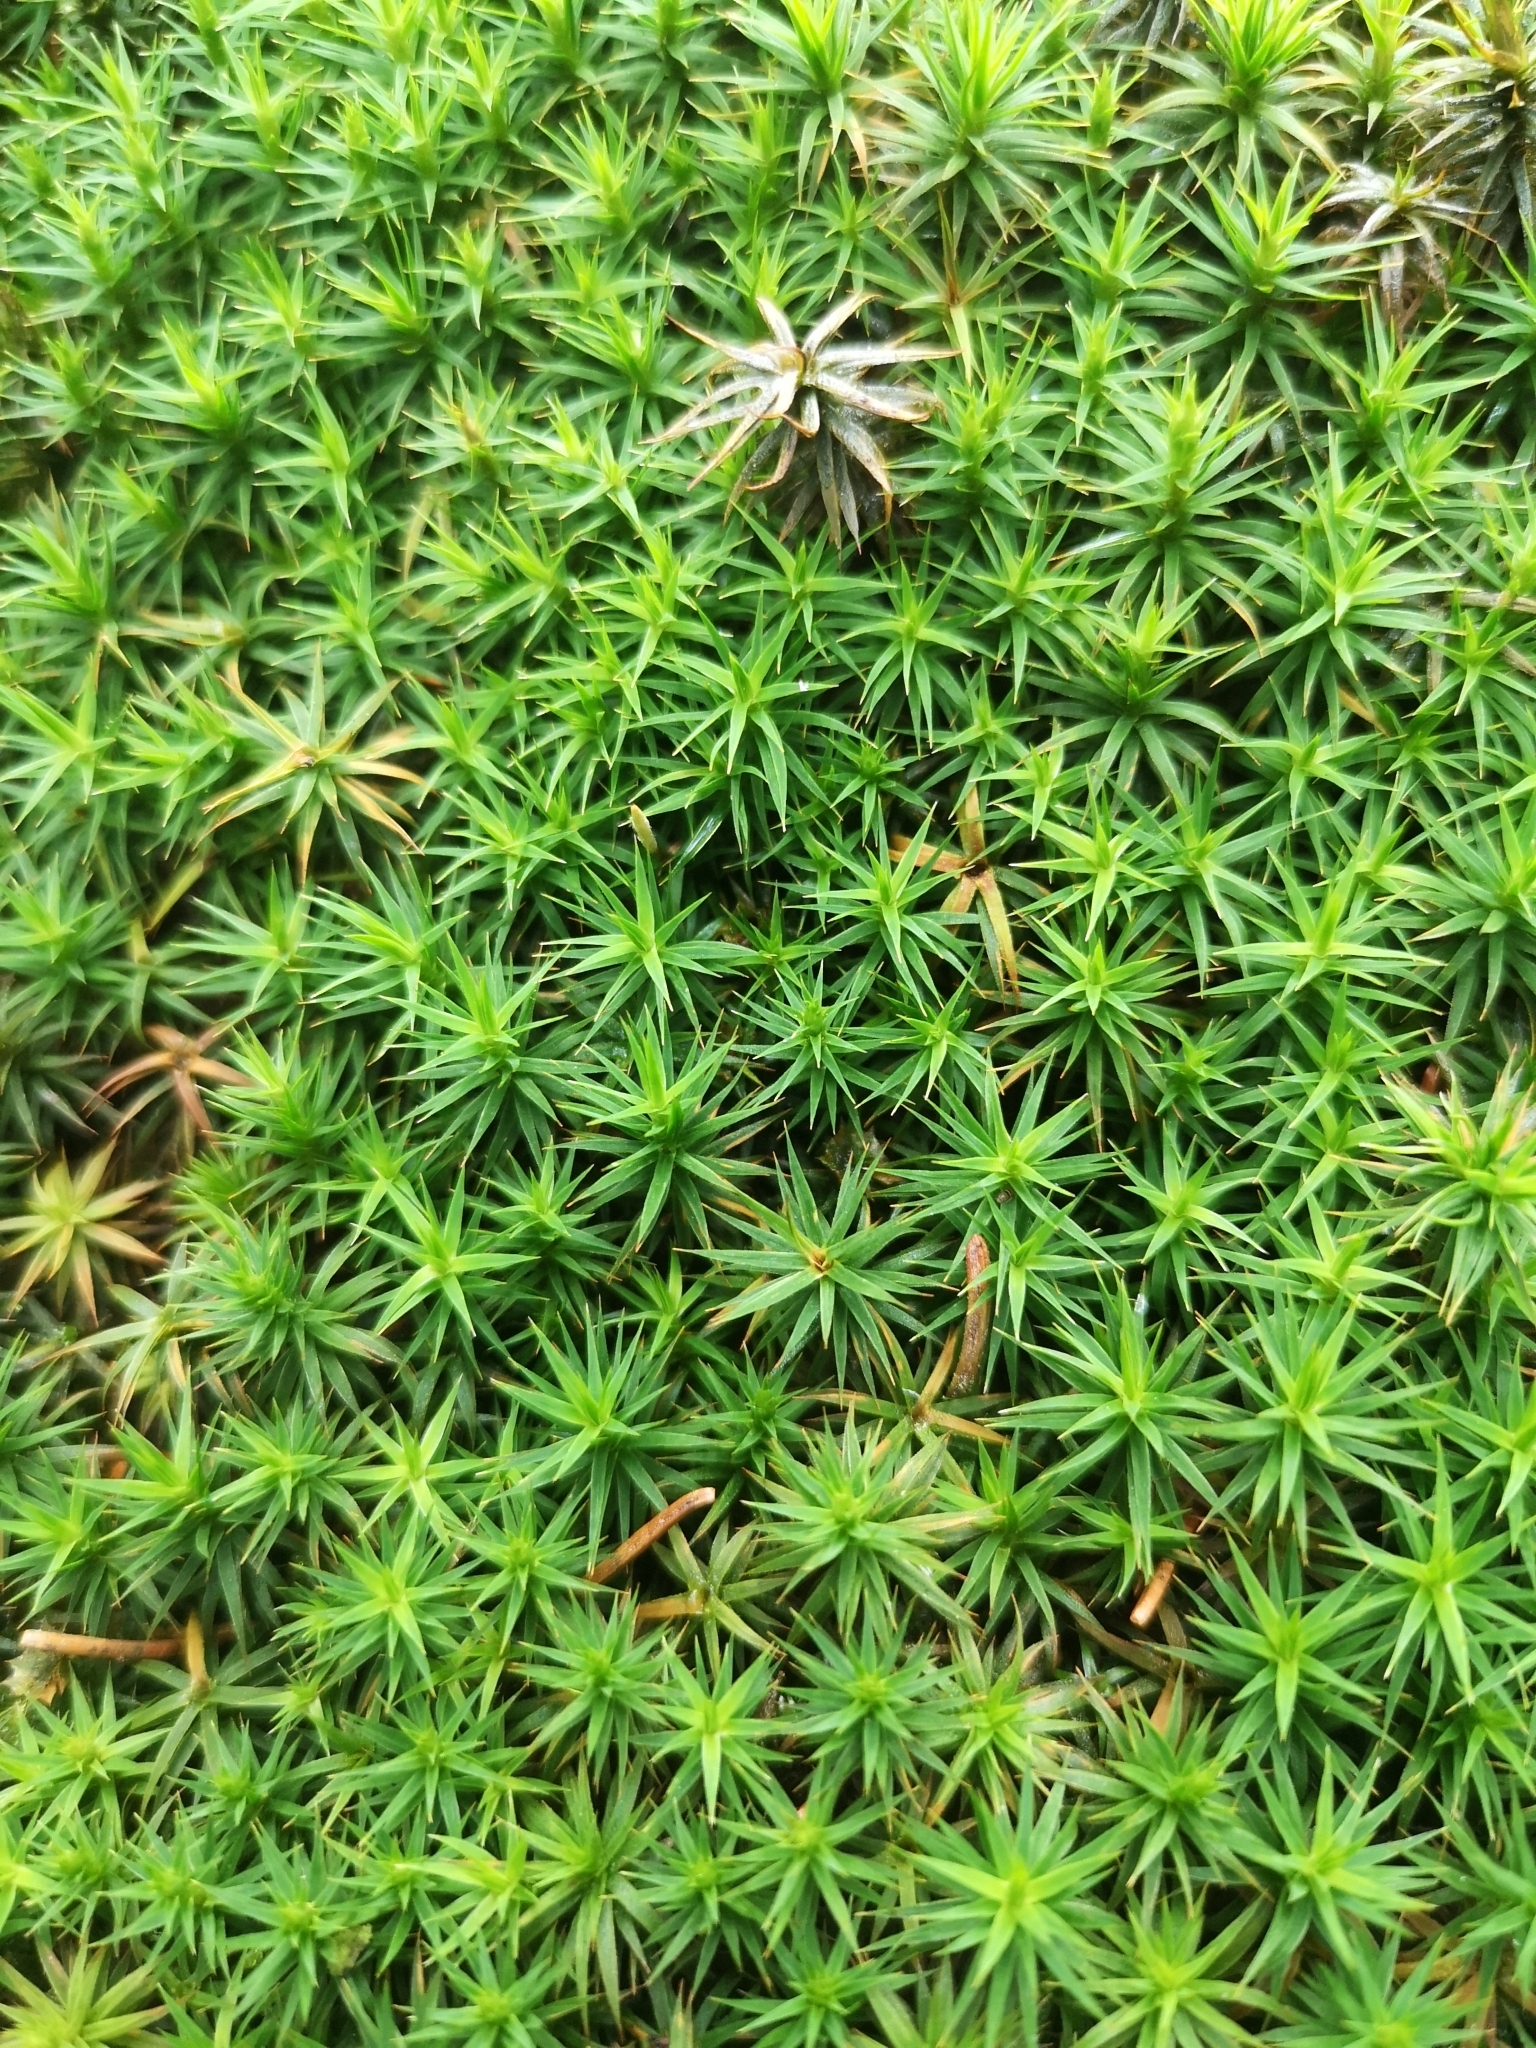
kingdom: Plantae
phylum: Bryophyta
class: Polytrichopsida
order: Polytrichales
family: Polytrichaceae
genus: Polytrichum
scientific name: Polytrichum formosum
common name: Bank haircap moss
